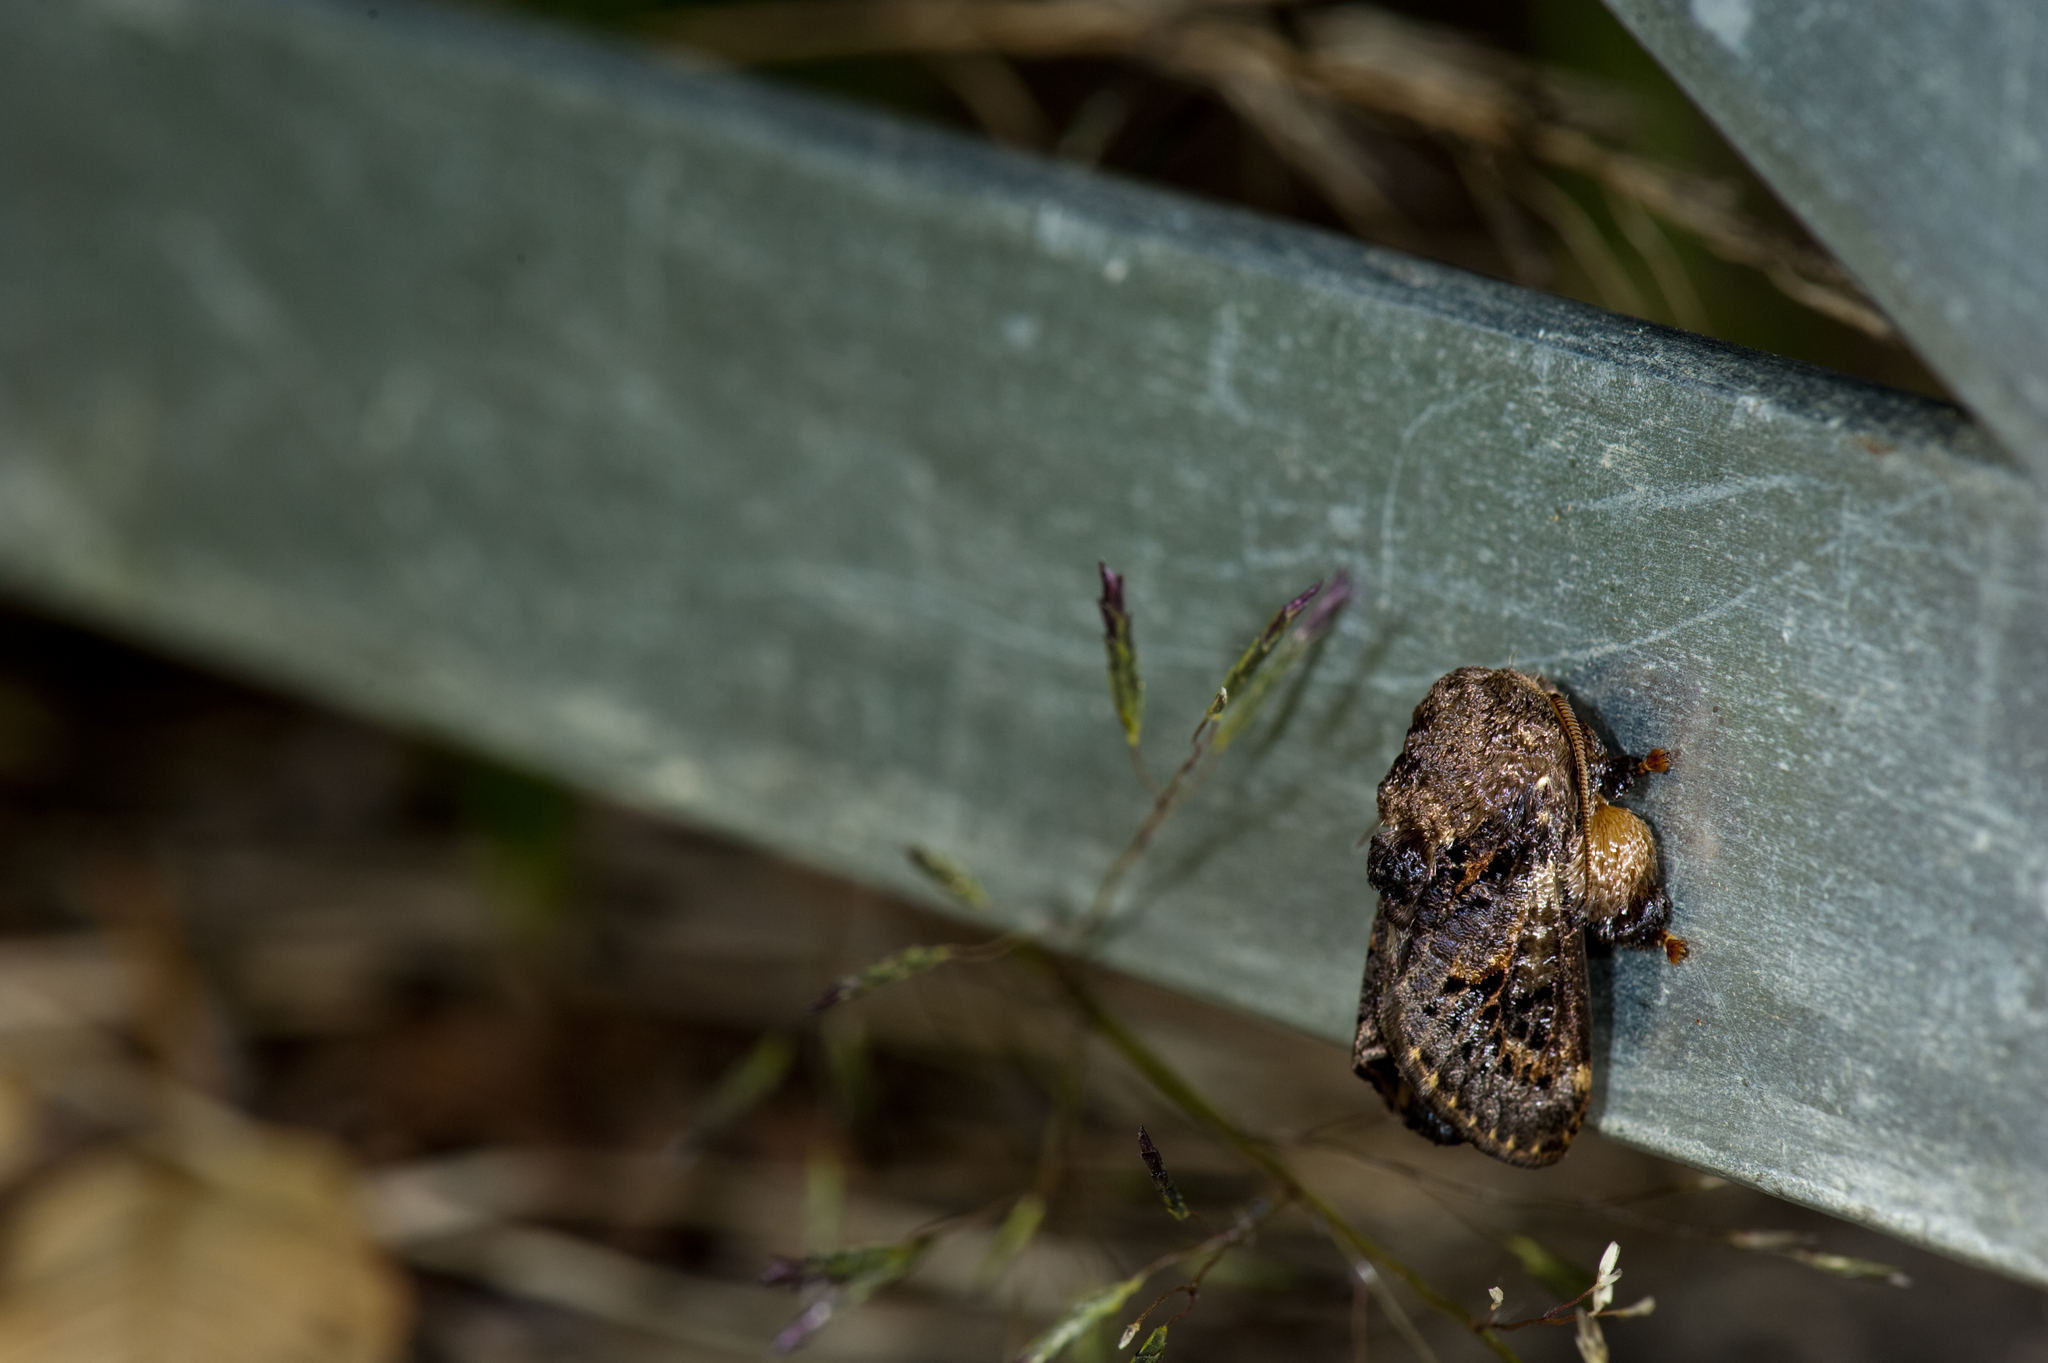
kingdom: Animalia
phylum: Arthropoda
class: Insecta
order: Lepidoptera
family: Limacodidae
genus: Prapata
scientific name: Prapata owadai
